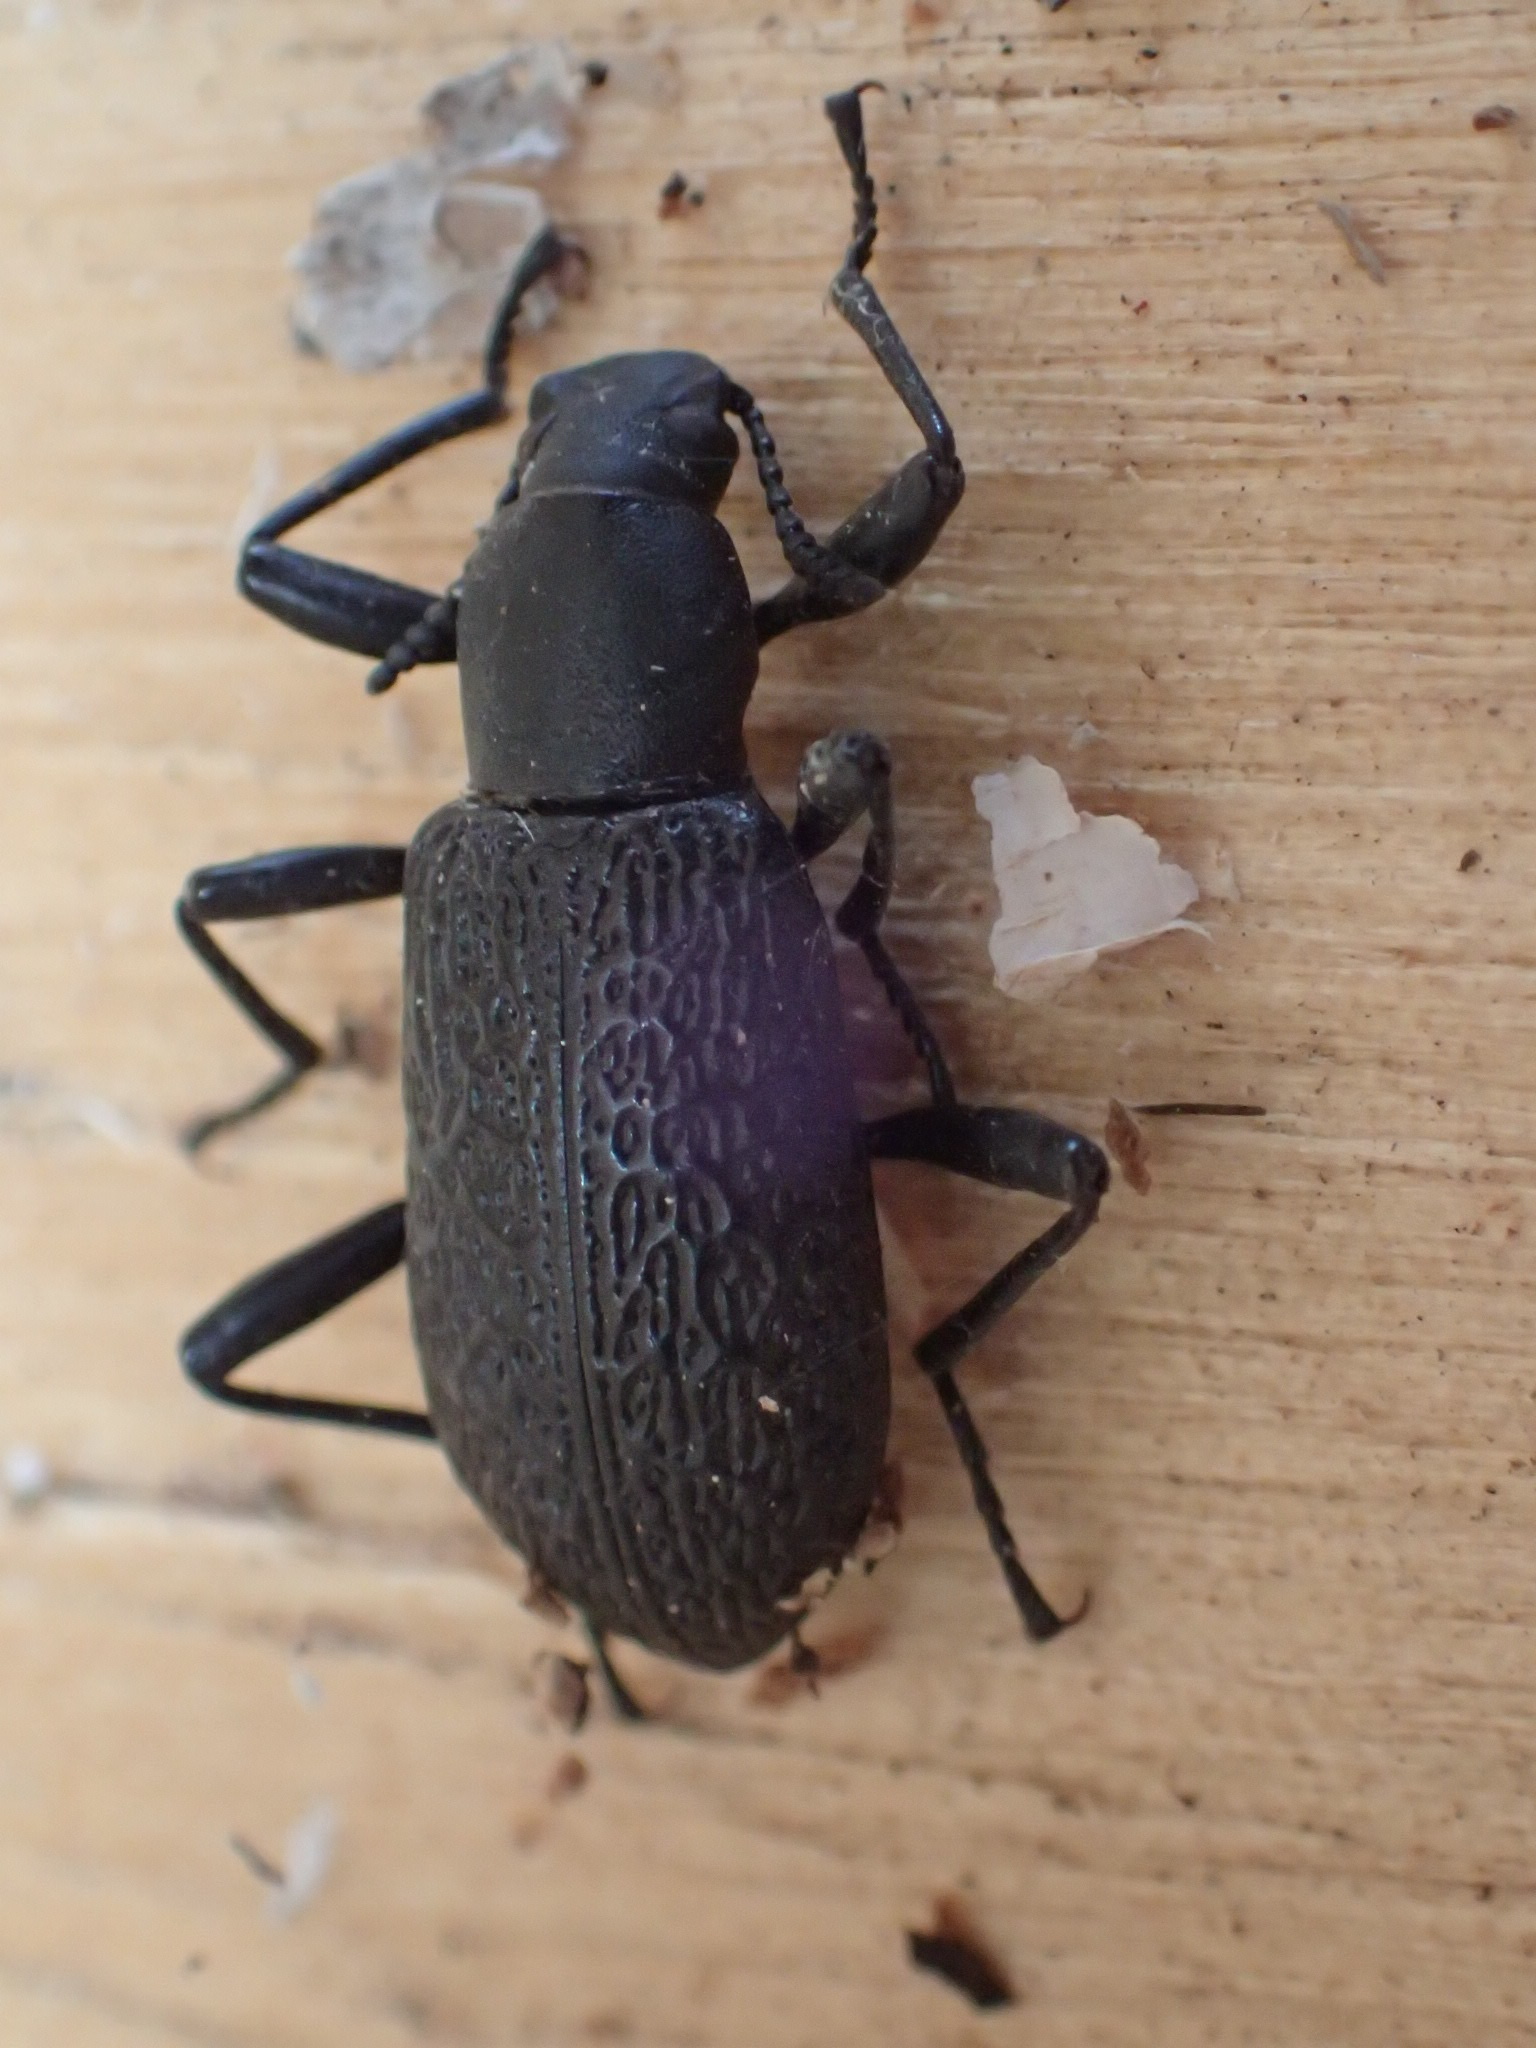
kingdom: Animalia
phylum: Arthropoda
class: Insecta
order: Coleoptera
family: Tenebrionidae
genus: Upis
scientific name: Upis ceramboides
